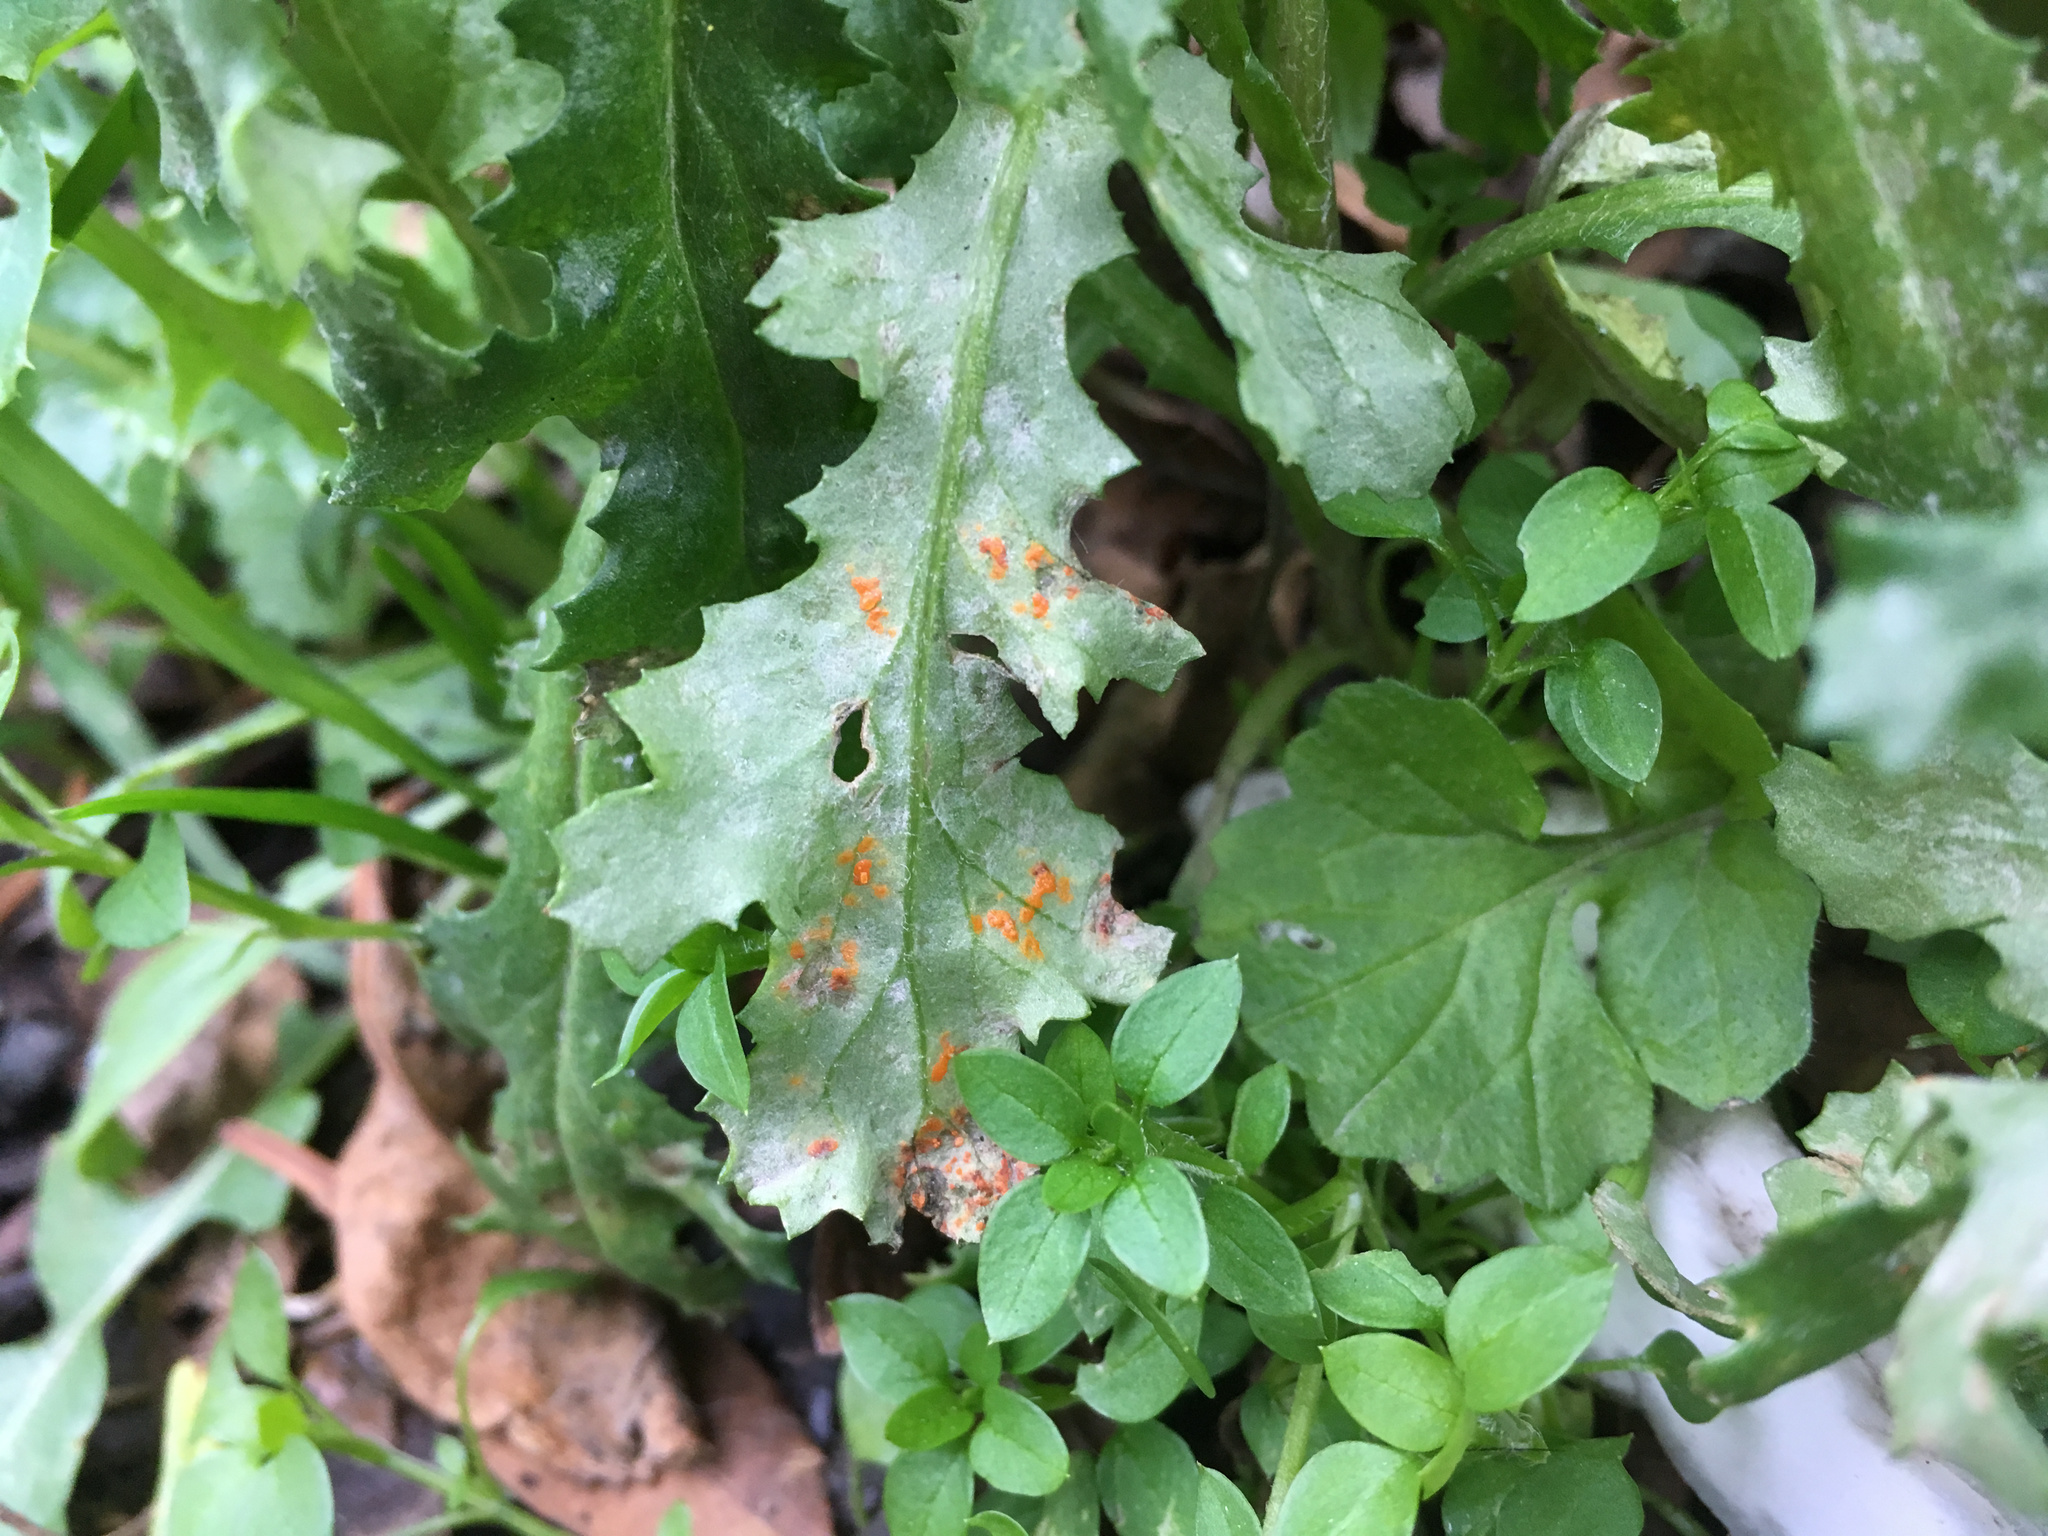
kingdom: Fungi
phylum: Basidiomycota
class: Pucciniomycetes
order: Pucciniales
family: Coleosporiaceae
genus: Coleosporium
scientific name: Coleosporium tussilaginis
